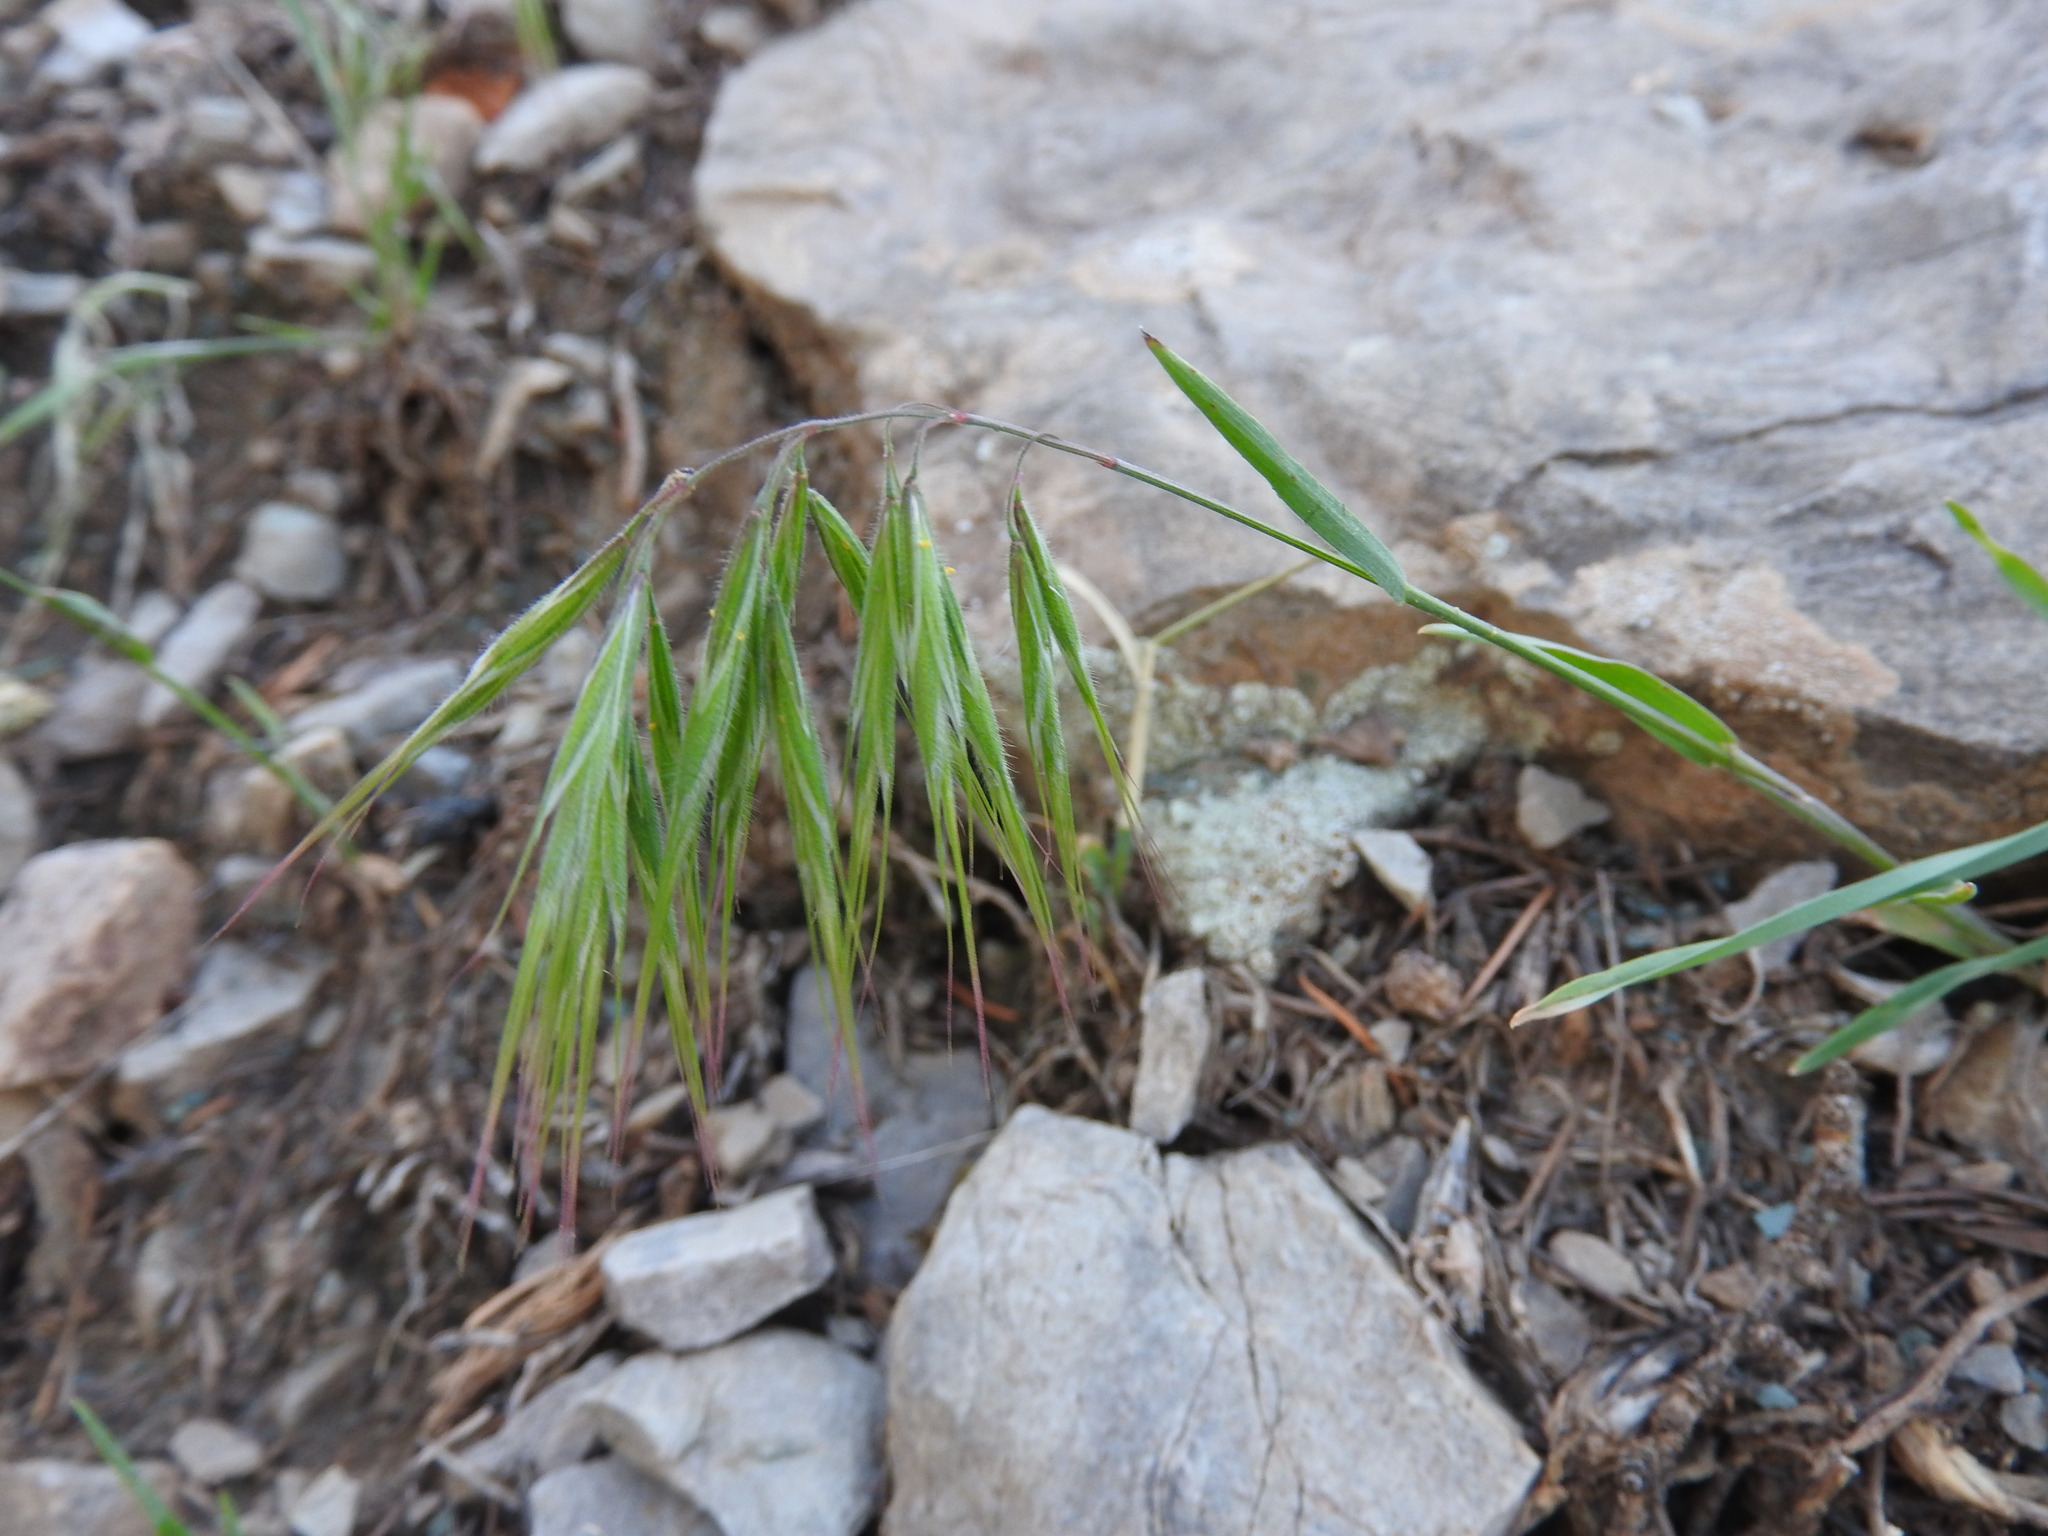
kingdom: Plantae
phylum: Tracheophyta
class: Liliopsida
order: Poales
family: Poaceae
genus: Bromus
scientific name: Bromus tectorum
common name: Cheatgrass
